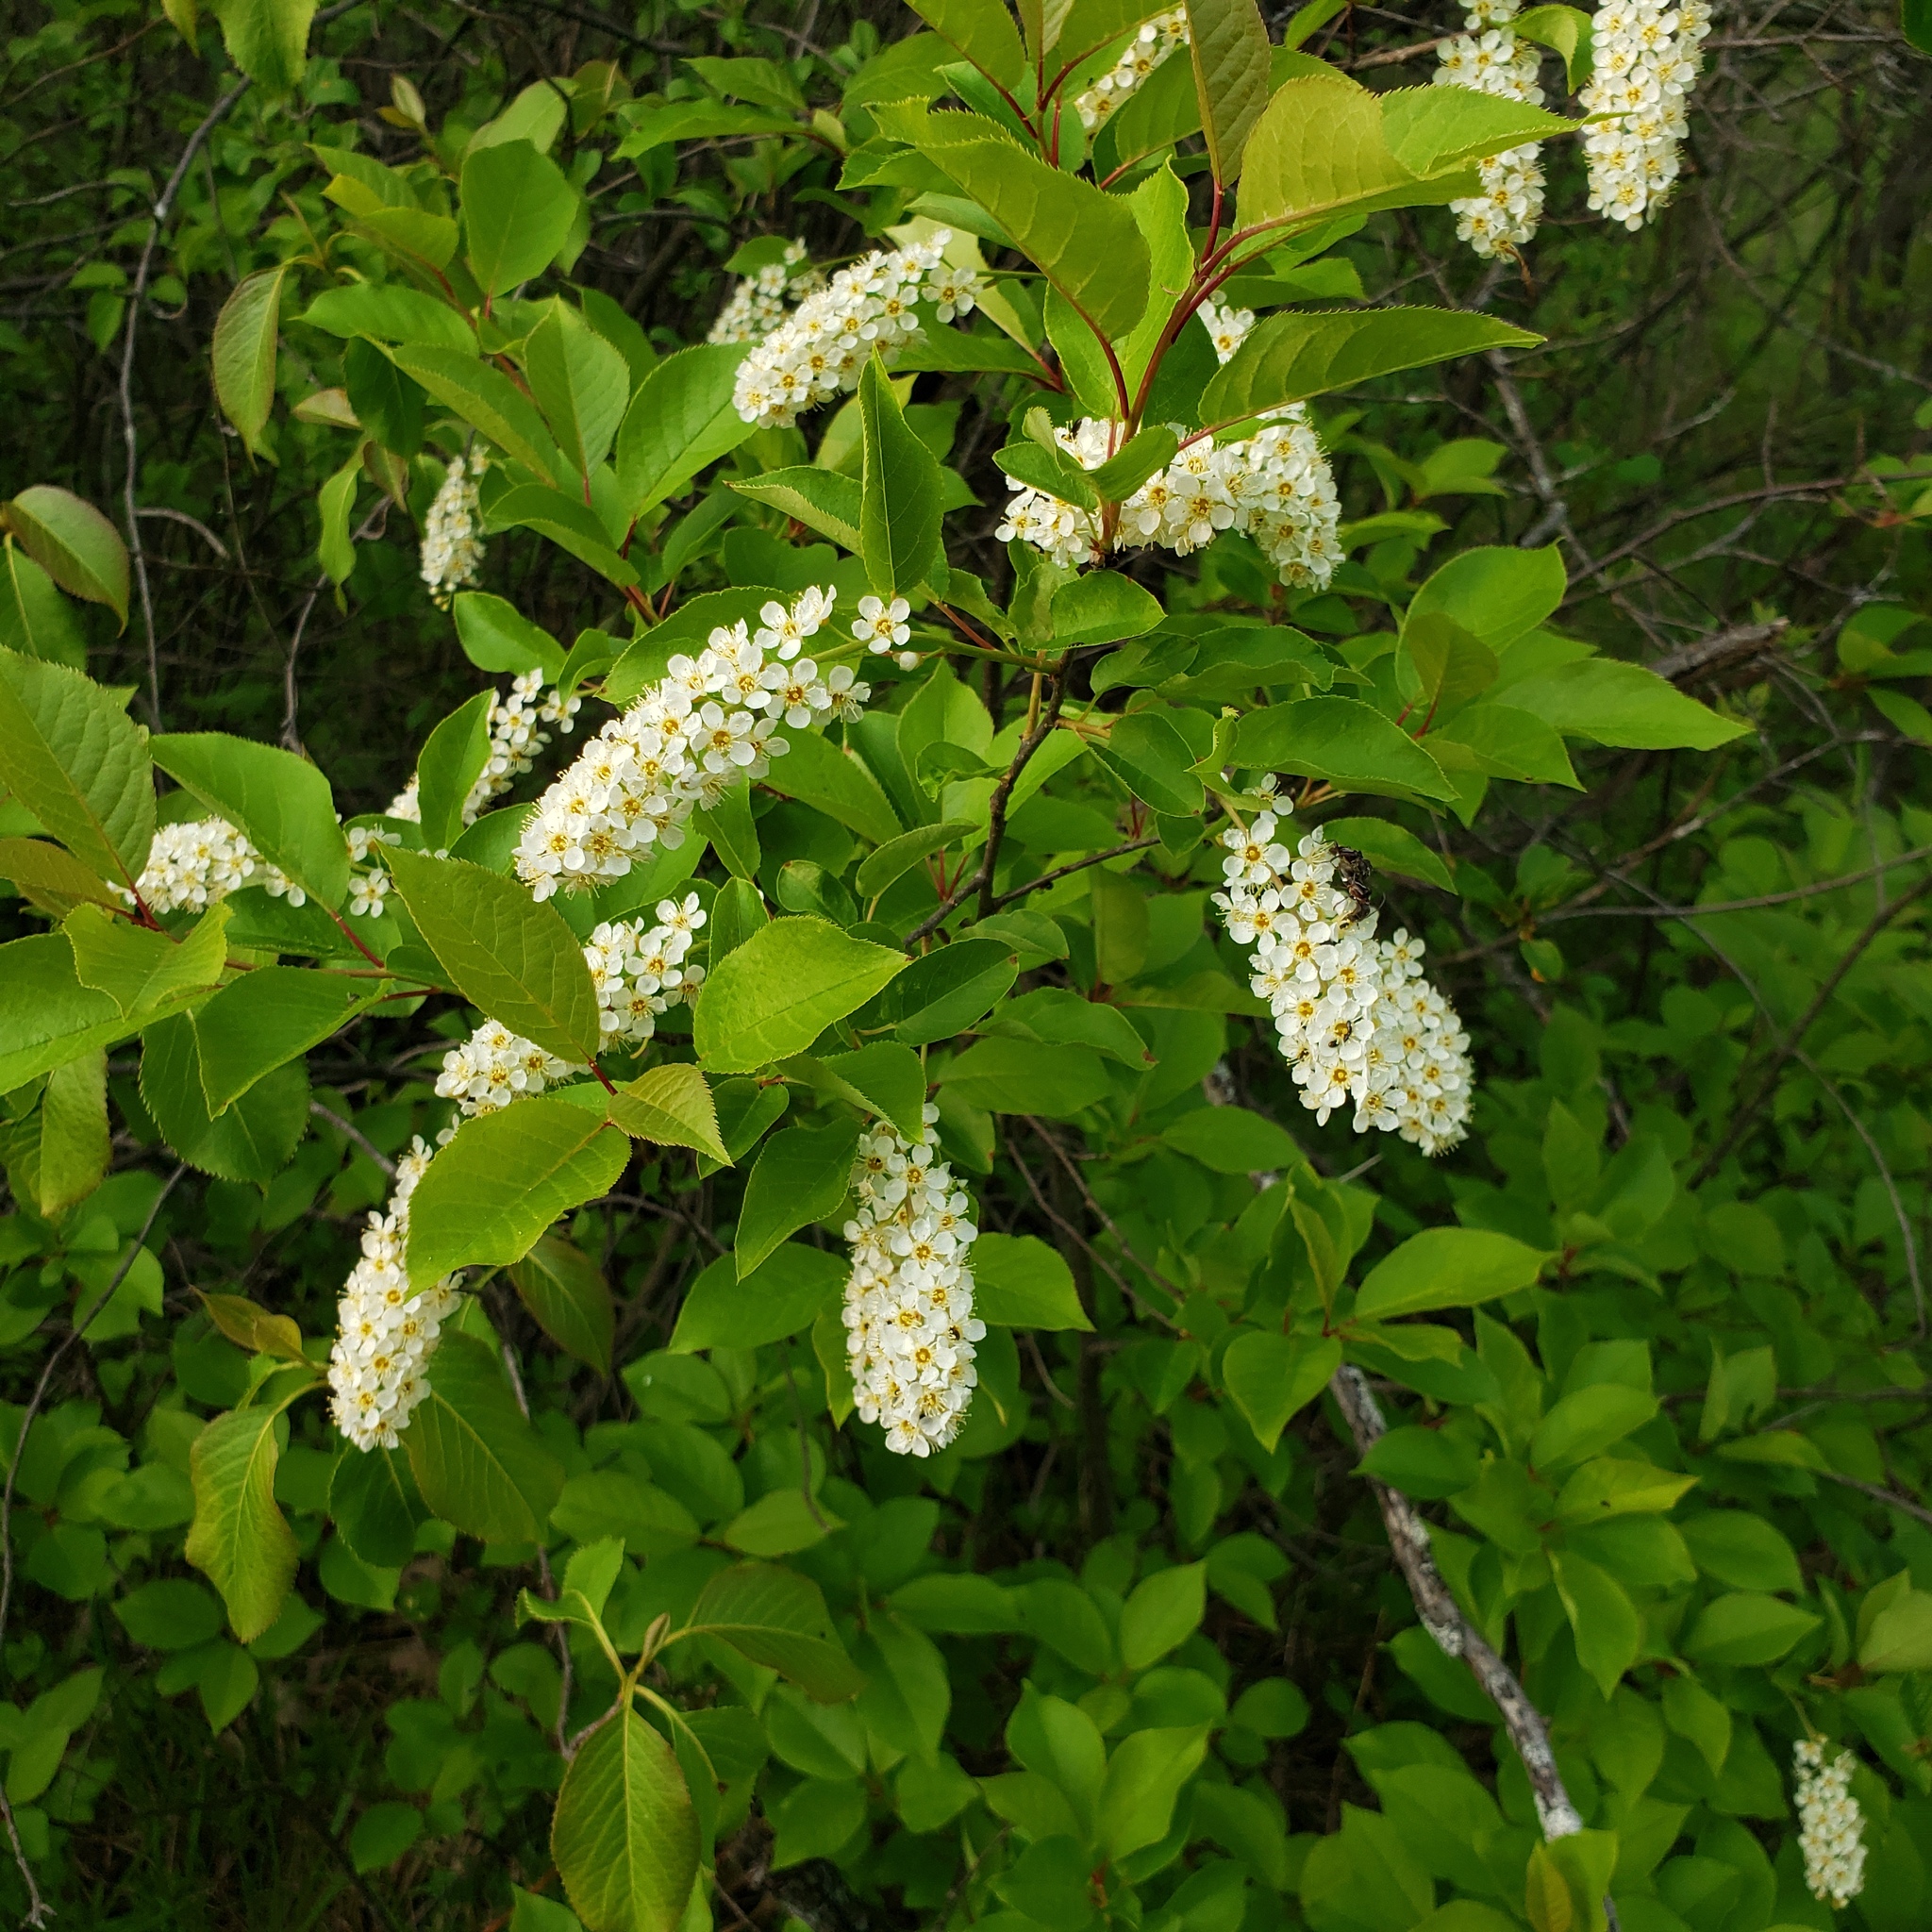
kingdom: Plantae
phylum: Tracheophyta
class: Magnoliopsida
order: Rosales
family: Rosaceae
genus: Prunus
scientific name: Prunus virginiana
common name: Chokecherry
